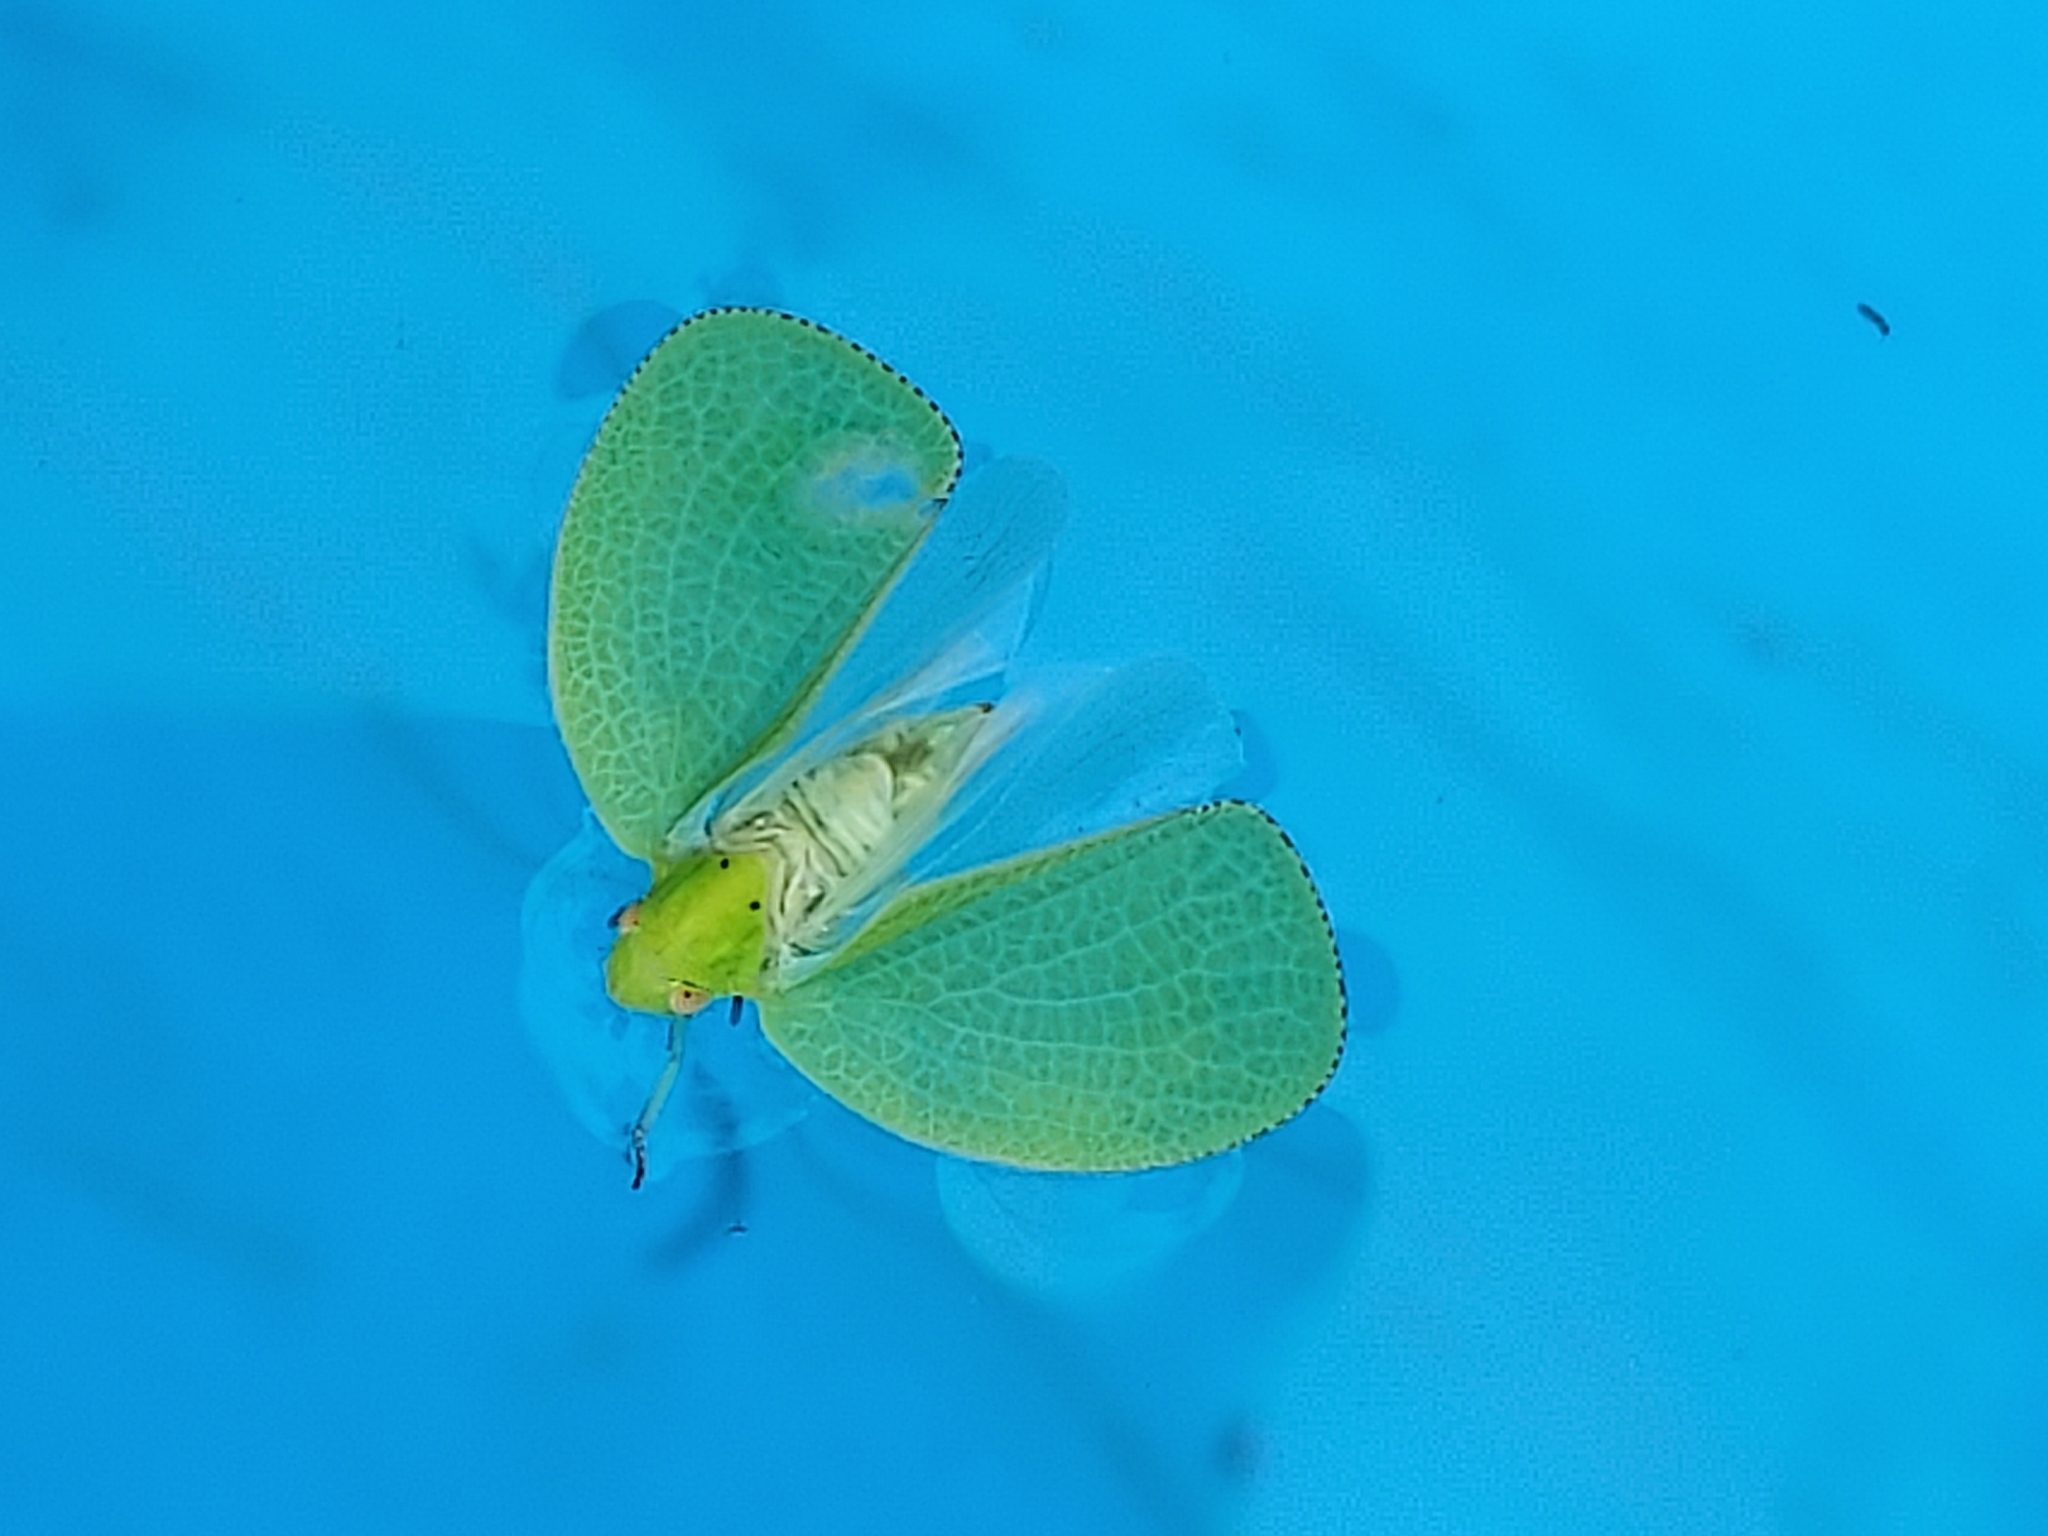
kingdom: Animalia
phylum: Arthropoda
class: Insecta
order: Hemiptera
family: Acanaloniidae
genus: Acanalonia
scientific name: Acanalonia conica
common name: Green cone-headed planthopper
